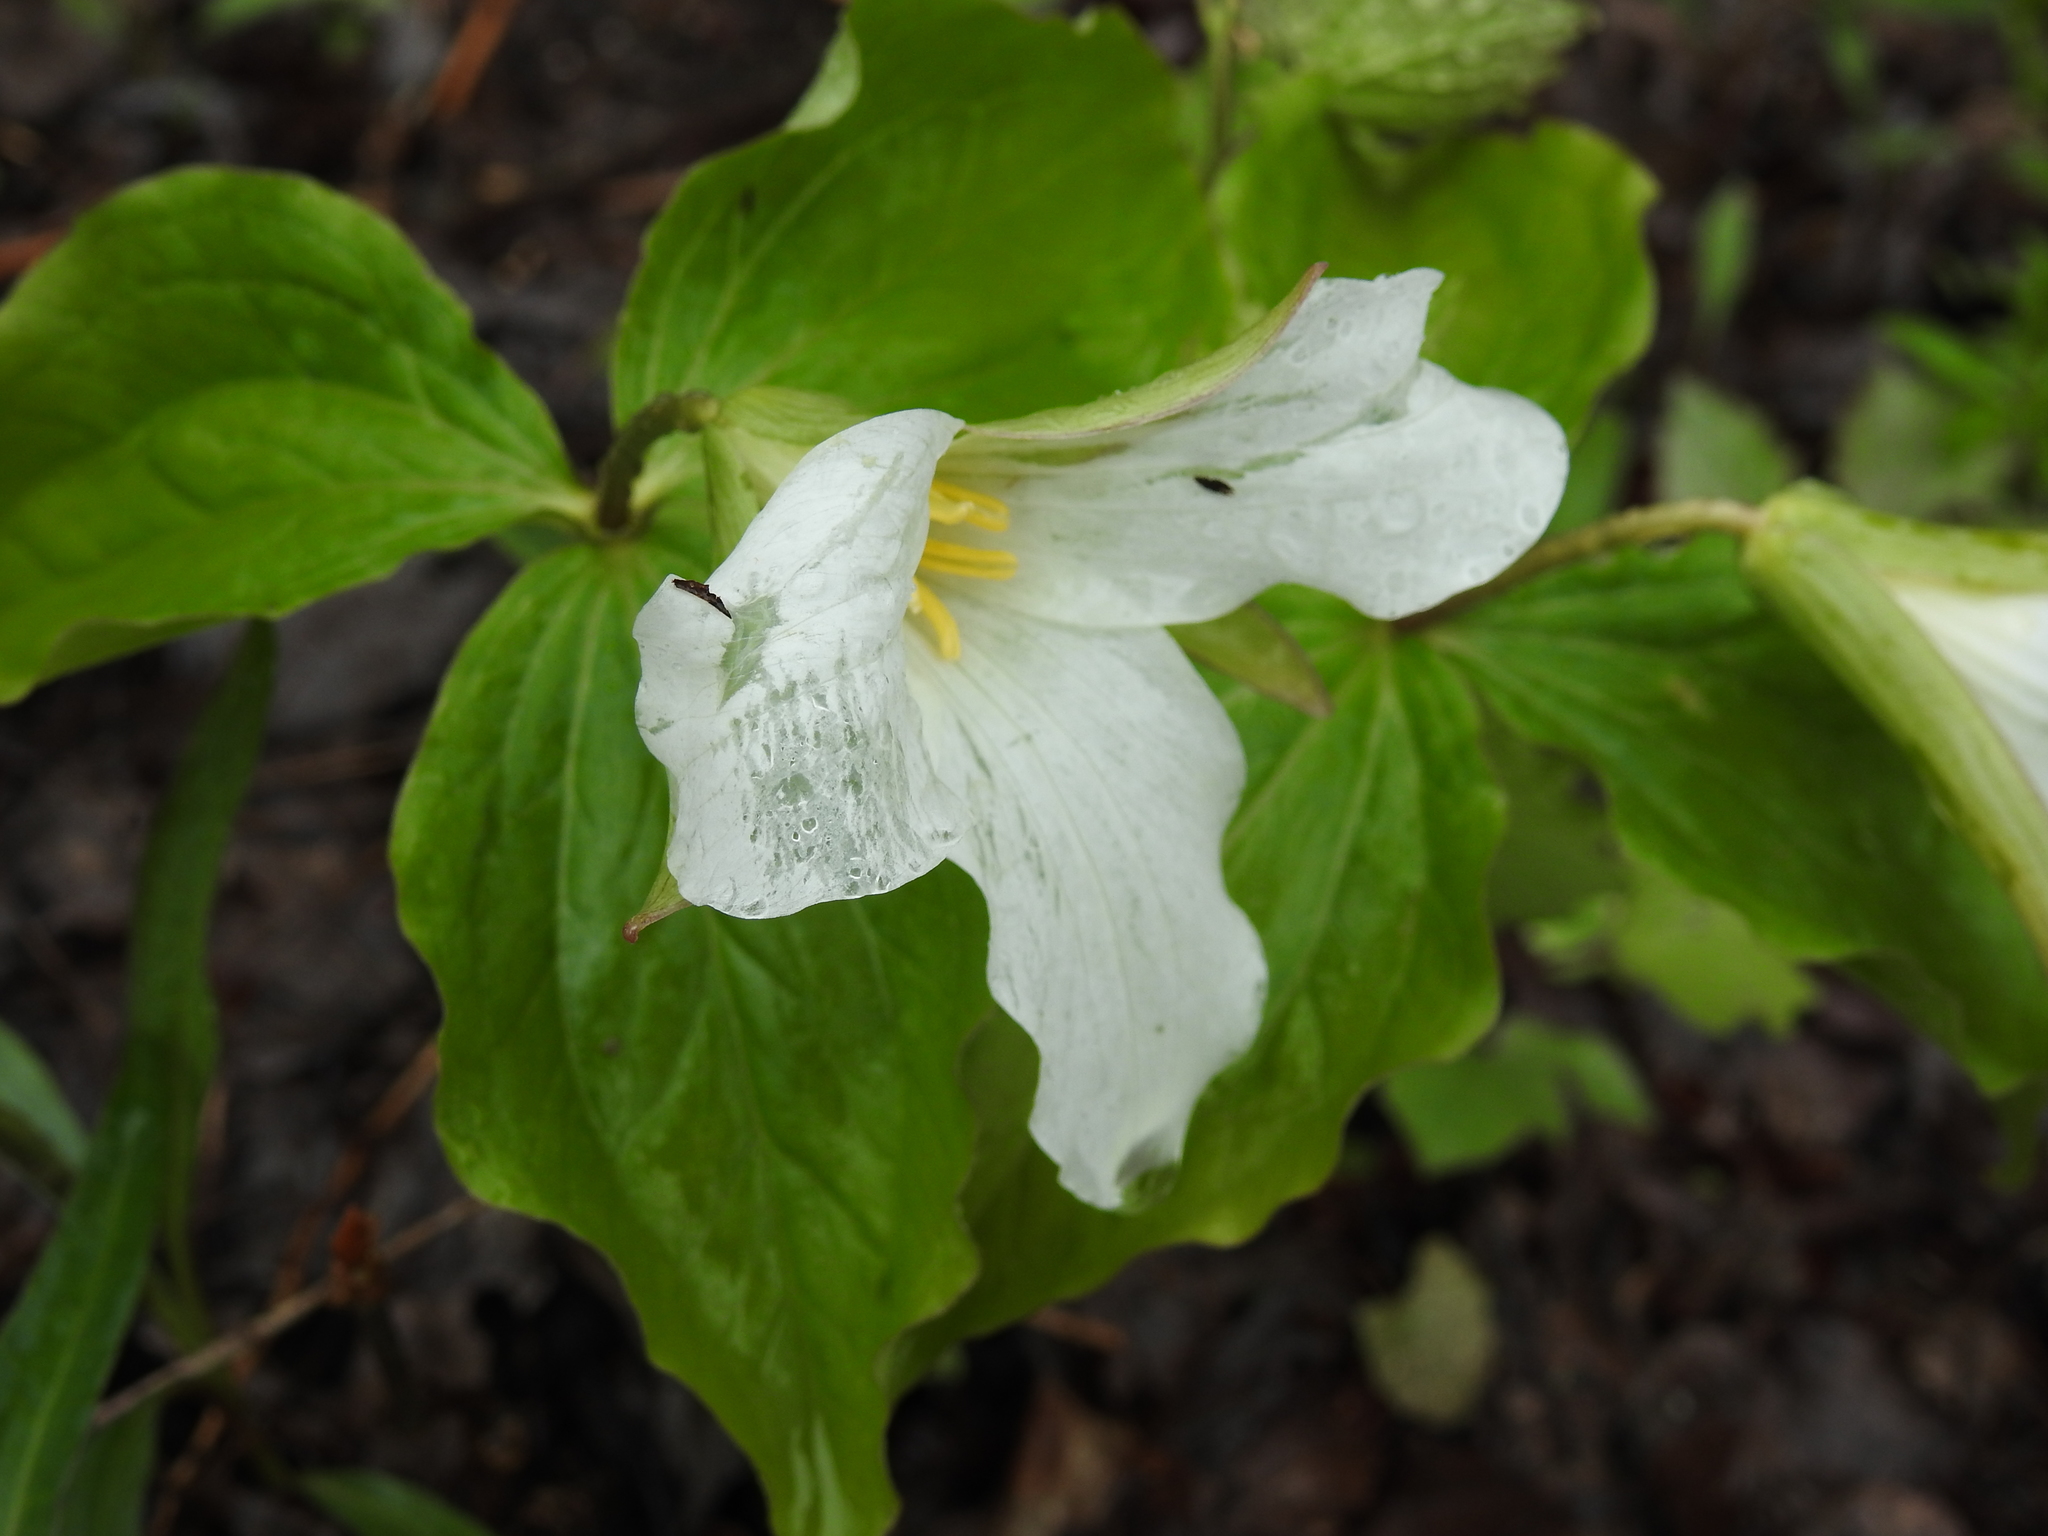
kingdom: Plantae
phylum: Tracheophyta
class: Liliopsida
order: Liliales
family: Melanthiaceae
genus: Trillium
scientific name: Trillium grandiflorum
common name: Great white trillium
